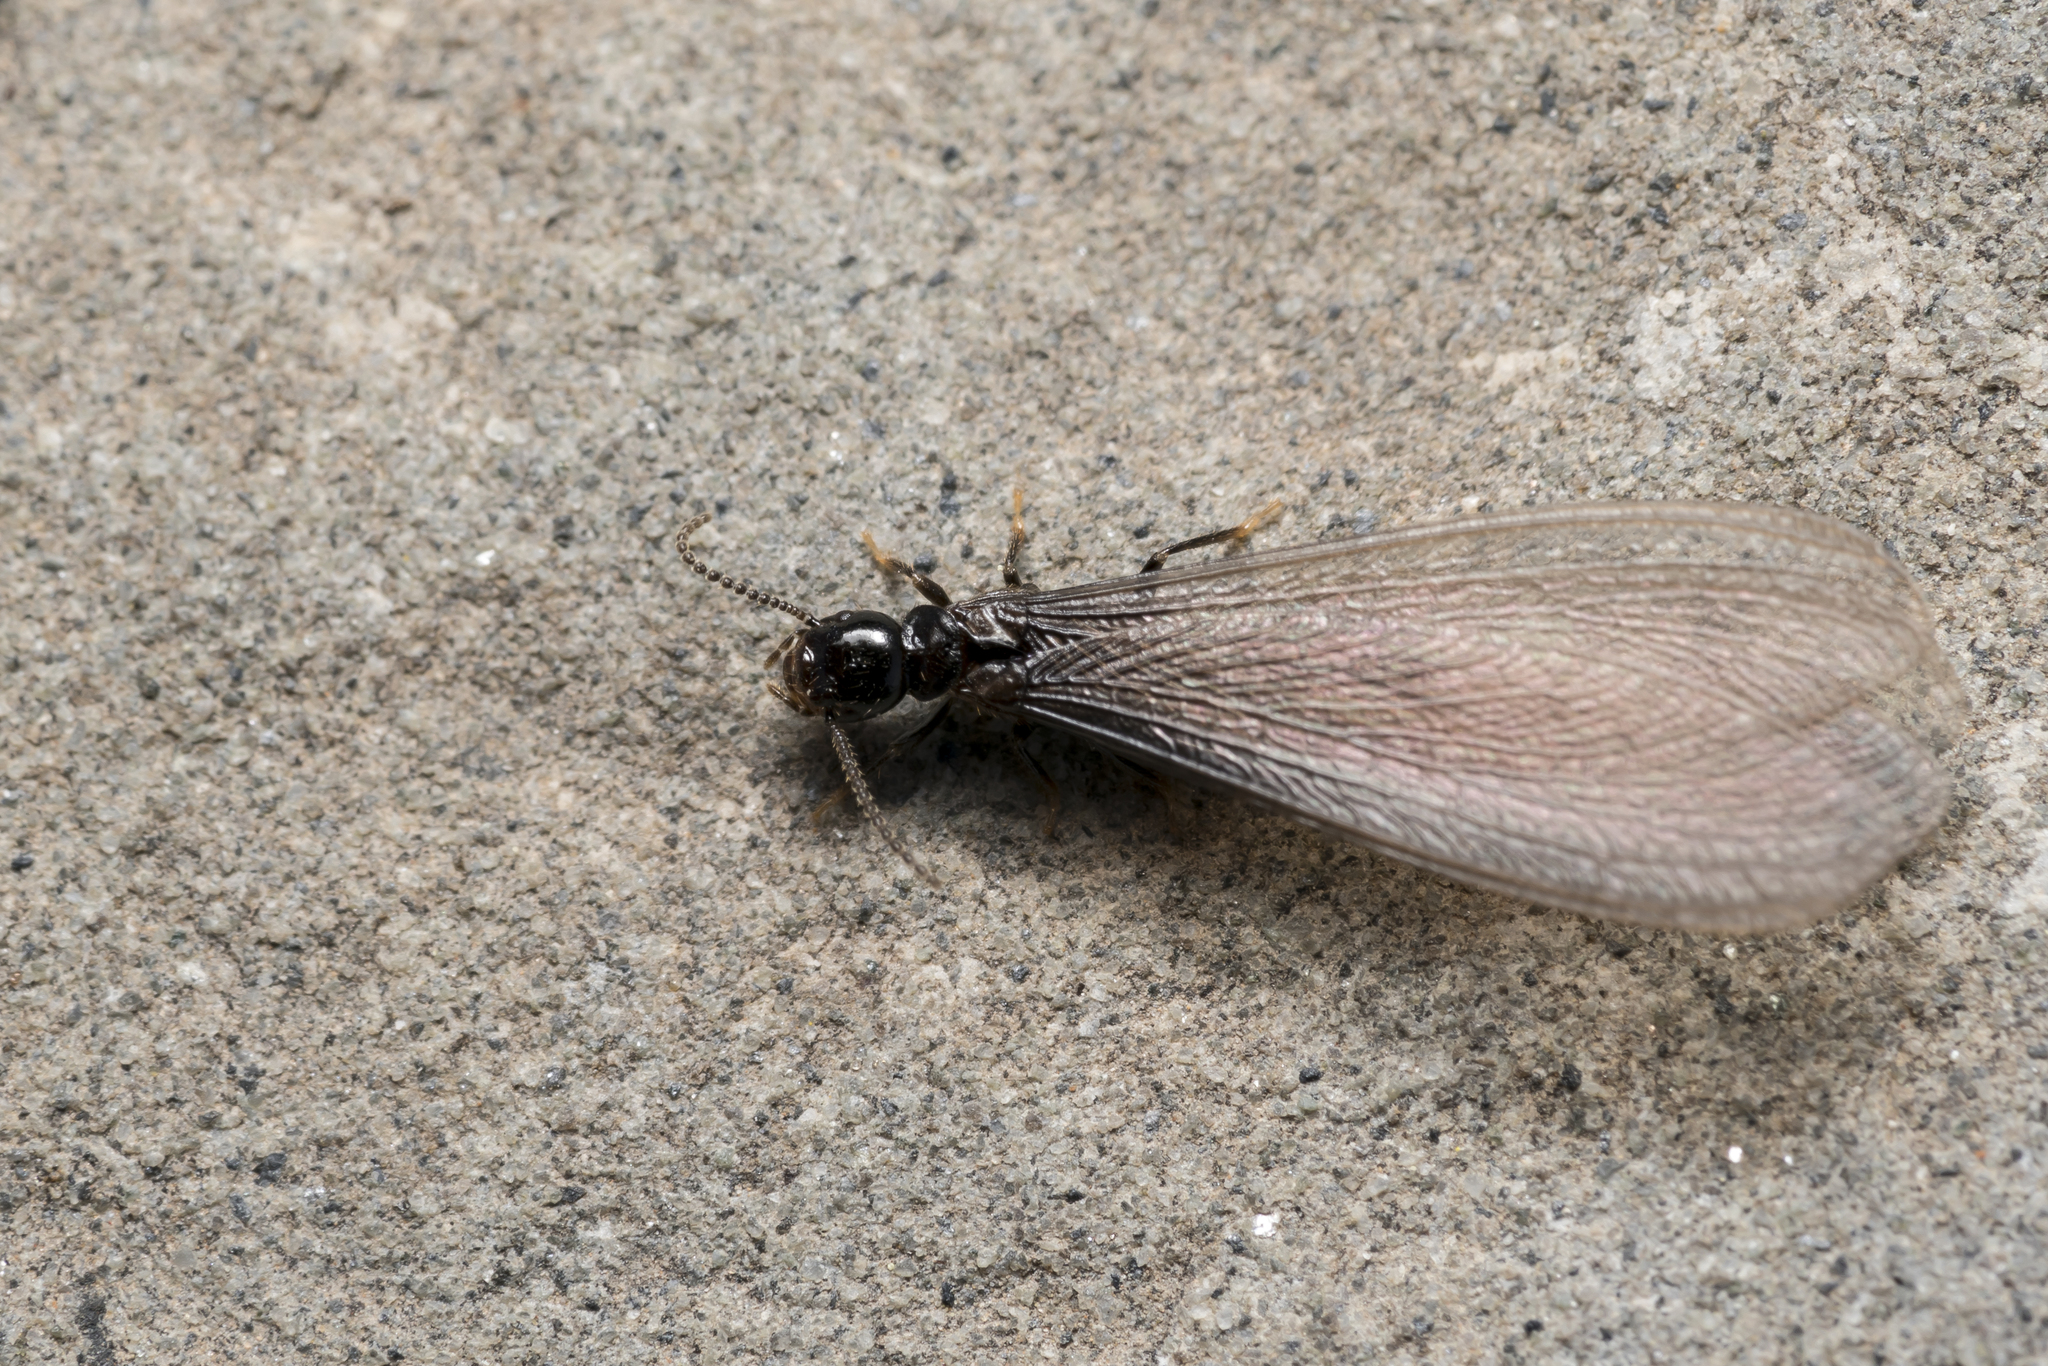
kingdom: Animalia
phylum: Arthropoda
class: Insecta
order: Blattodea
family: Rhinotermitidae
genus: Reticulitermes
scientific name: Reticulitermes
